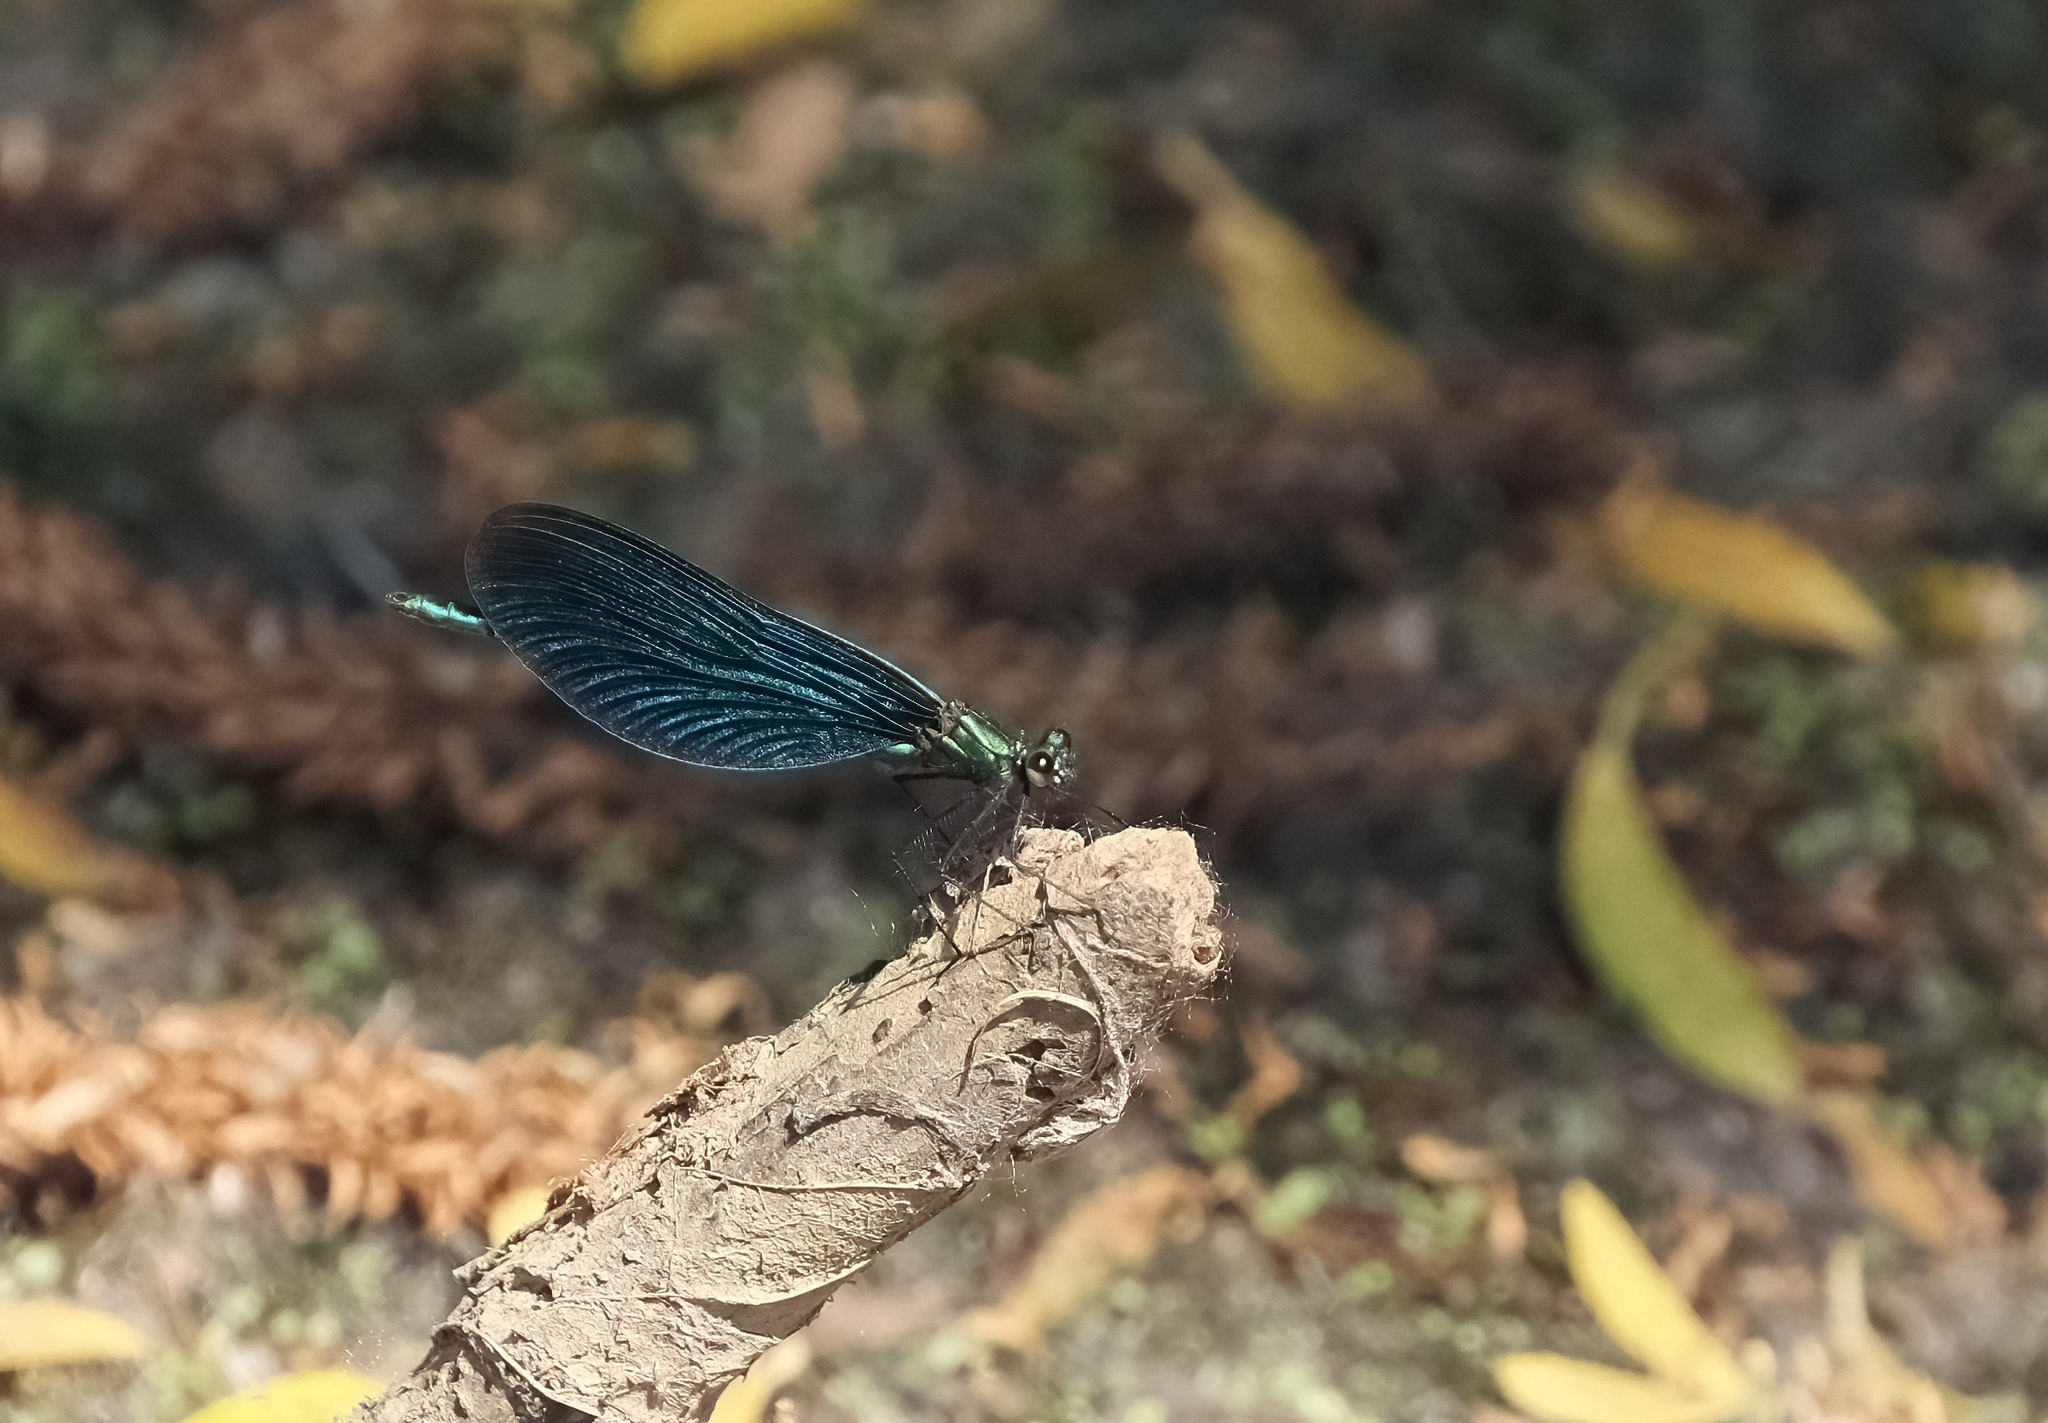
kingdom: Animalia
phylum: Arthropoda
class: Insecta
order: Odonata
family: Calopterygidae
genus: Calopteryx
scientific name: Calopteryx virgo
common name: Beautiful demoiselle
